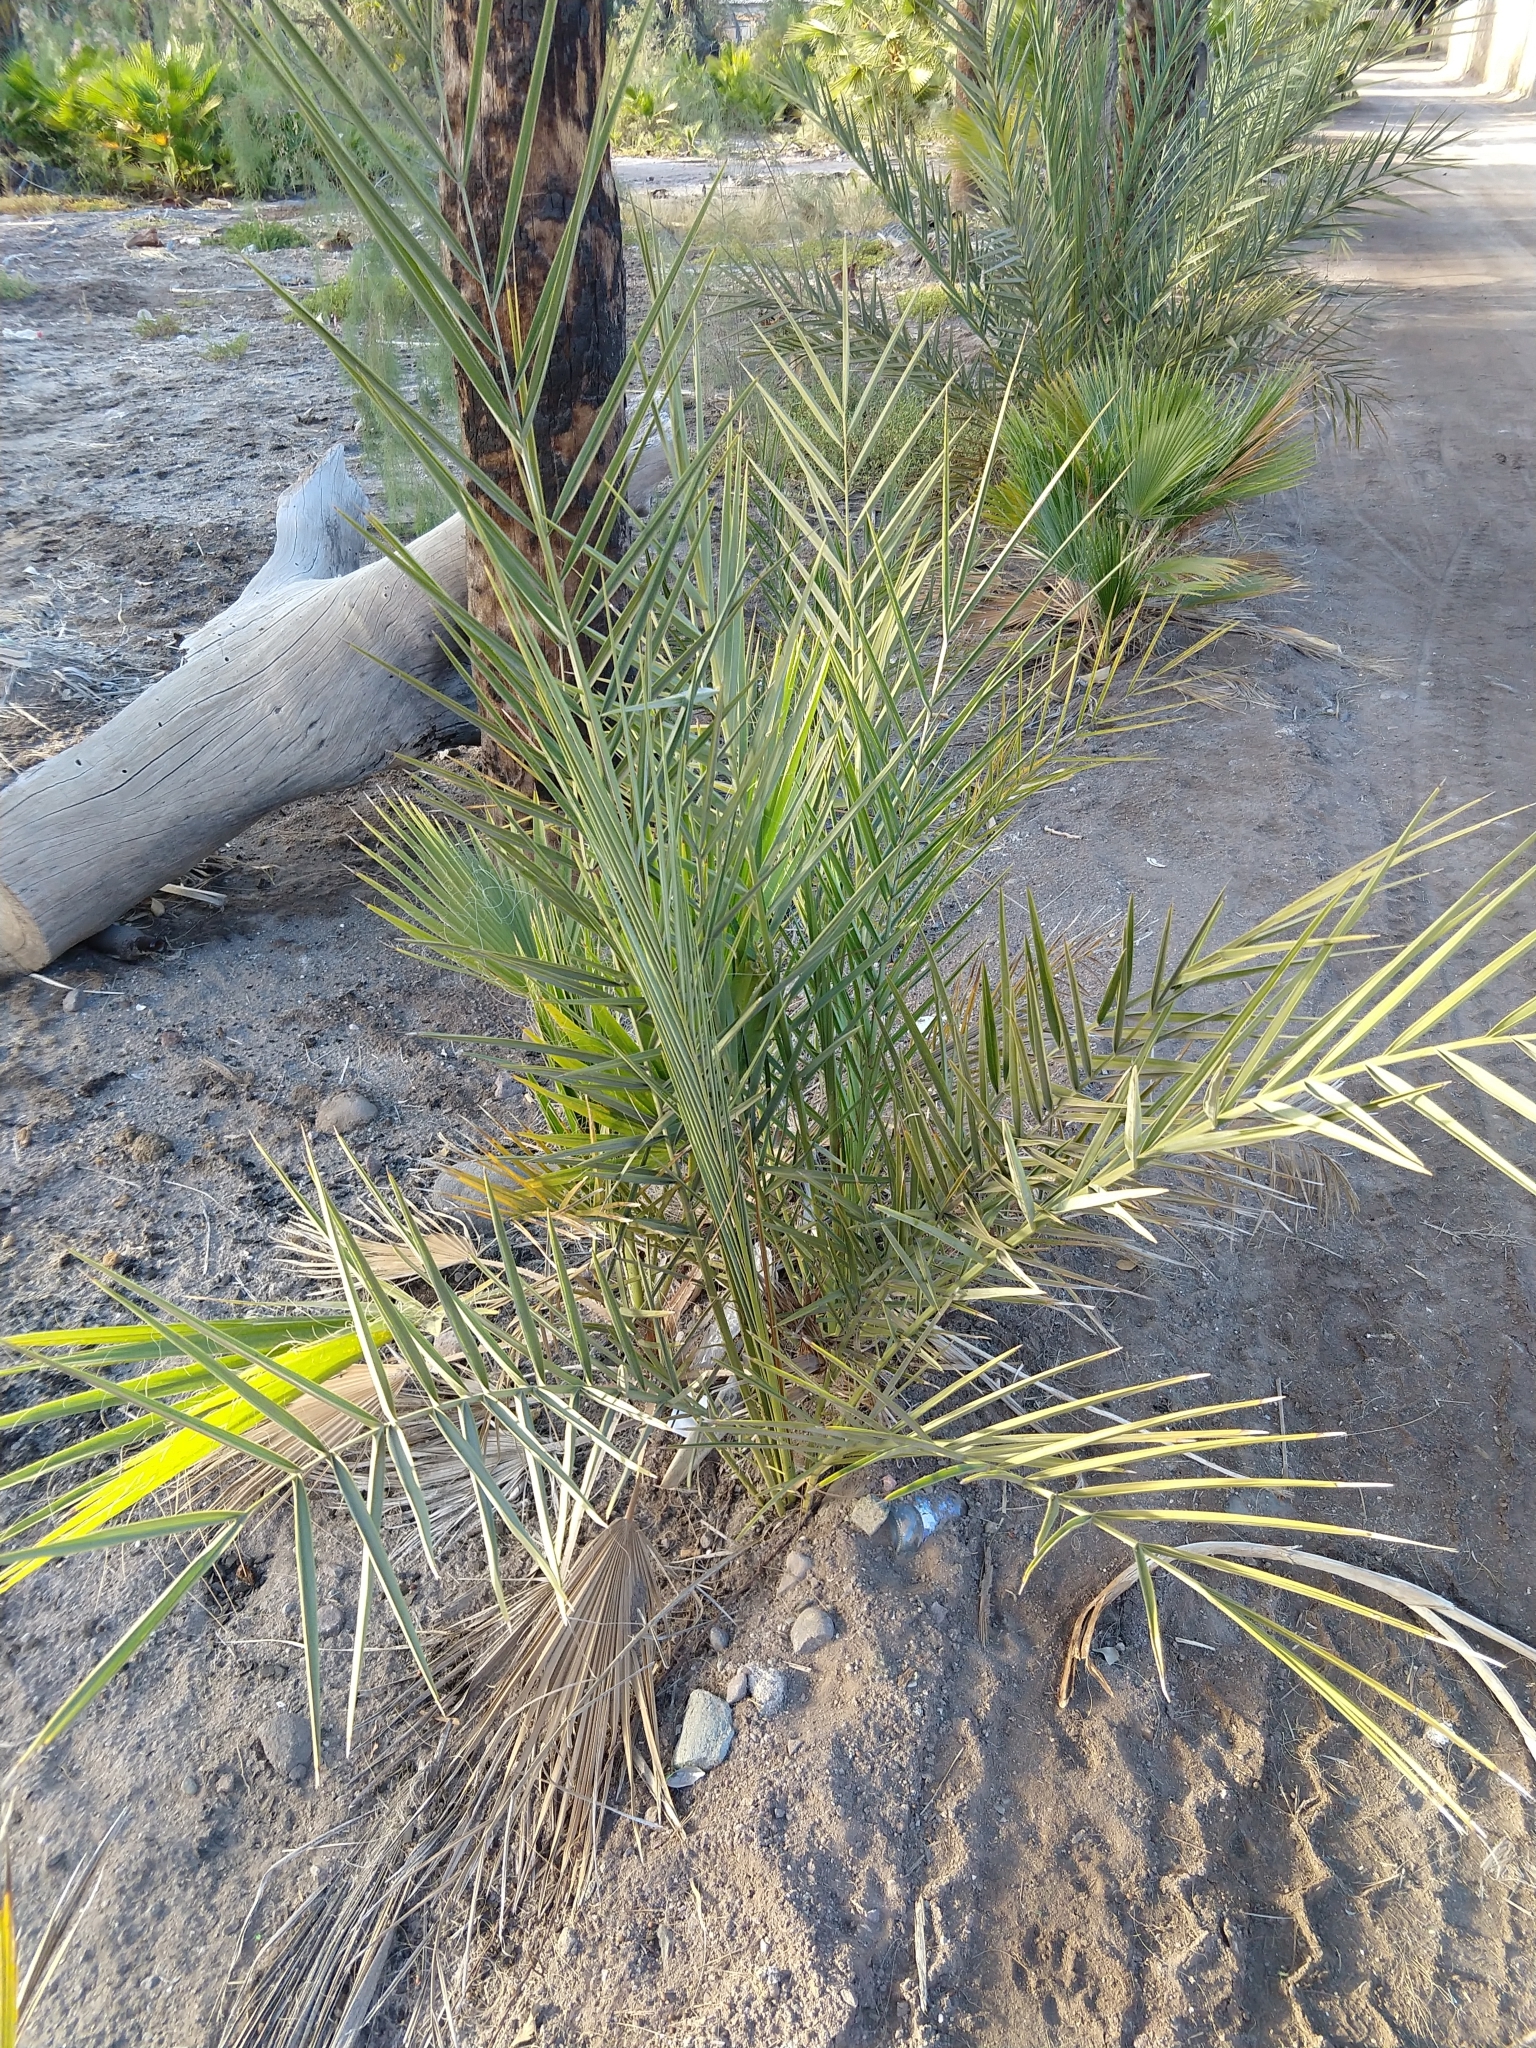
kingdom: Plantae
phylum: Tracheophyta
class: Liliopsida
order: Arecales
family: Arecaceae
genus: Phoenix
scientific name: Phoenix dactylifera
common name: Date palm
